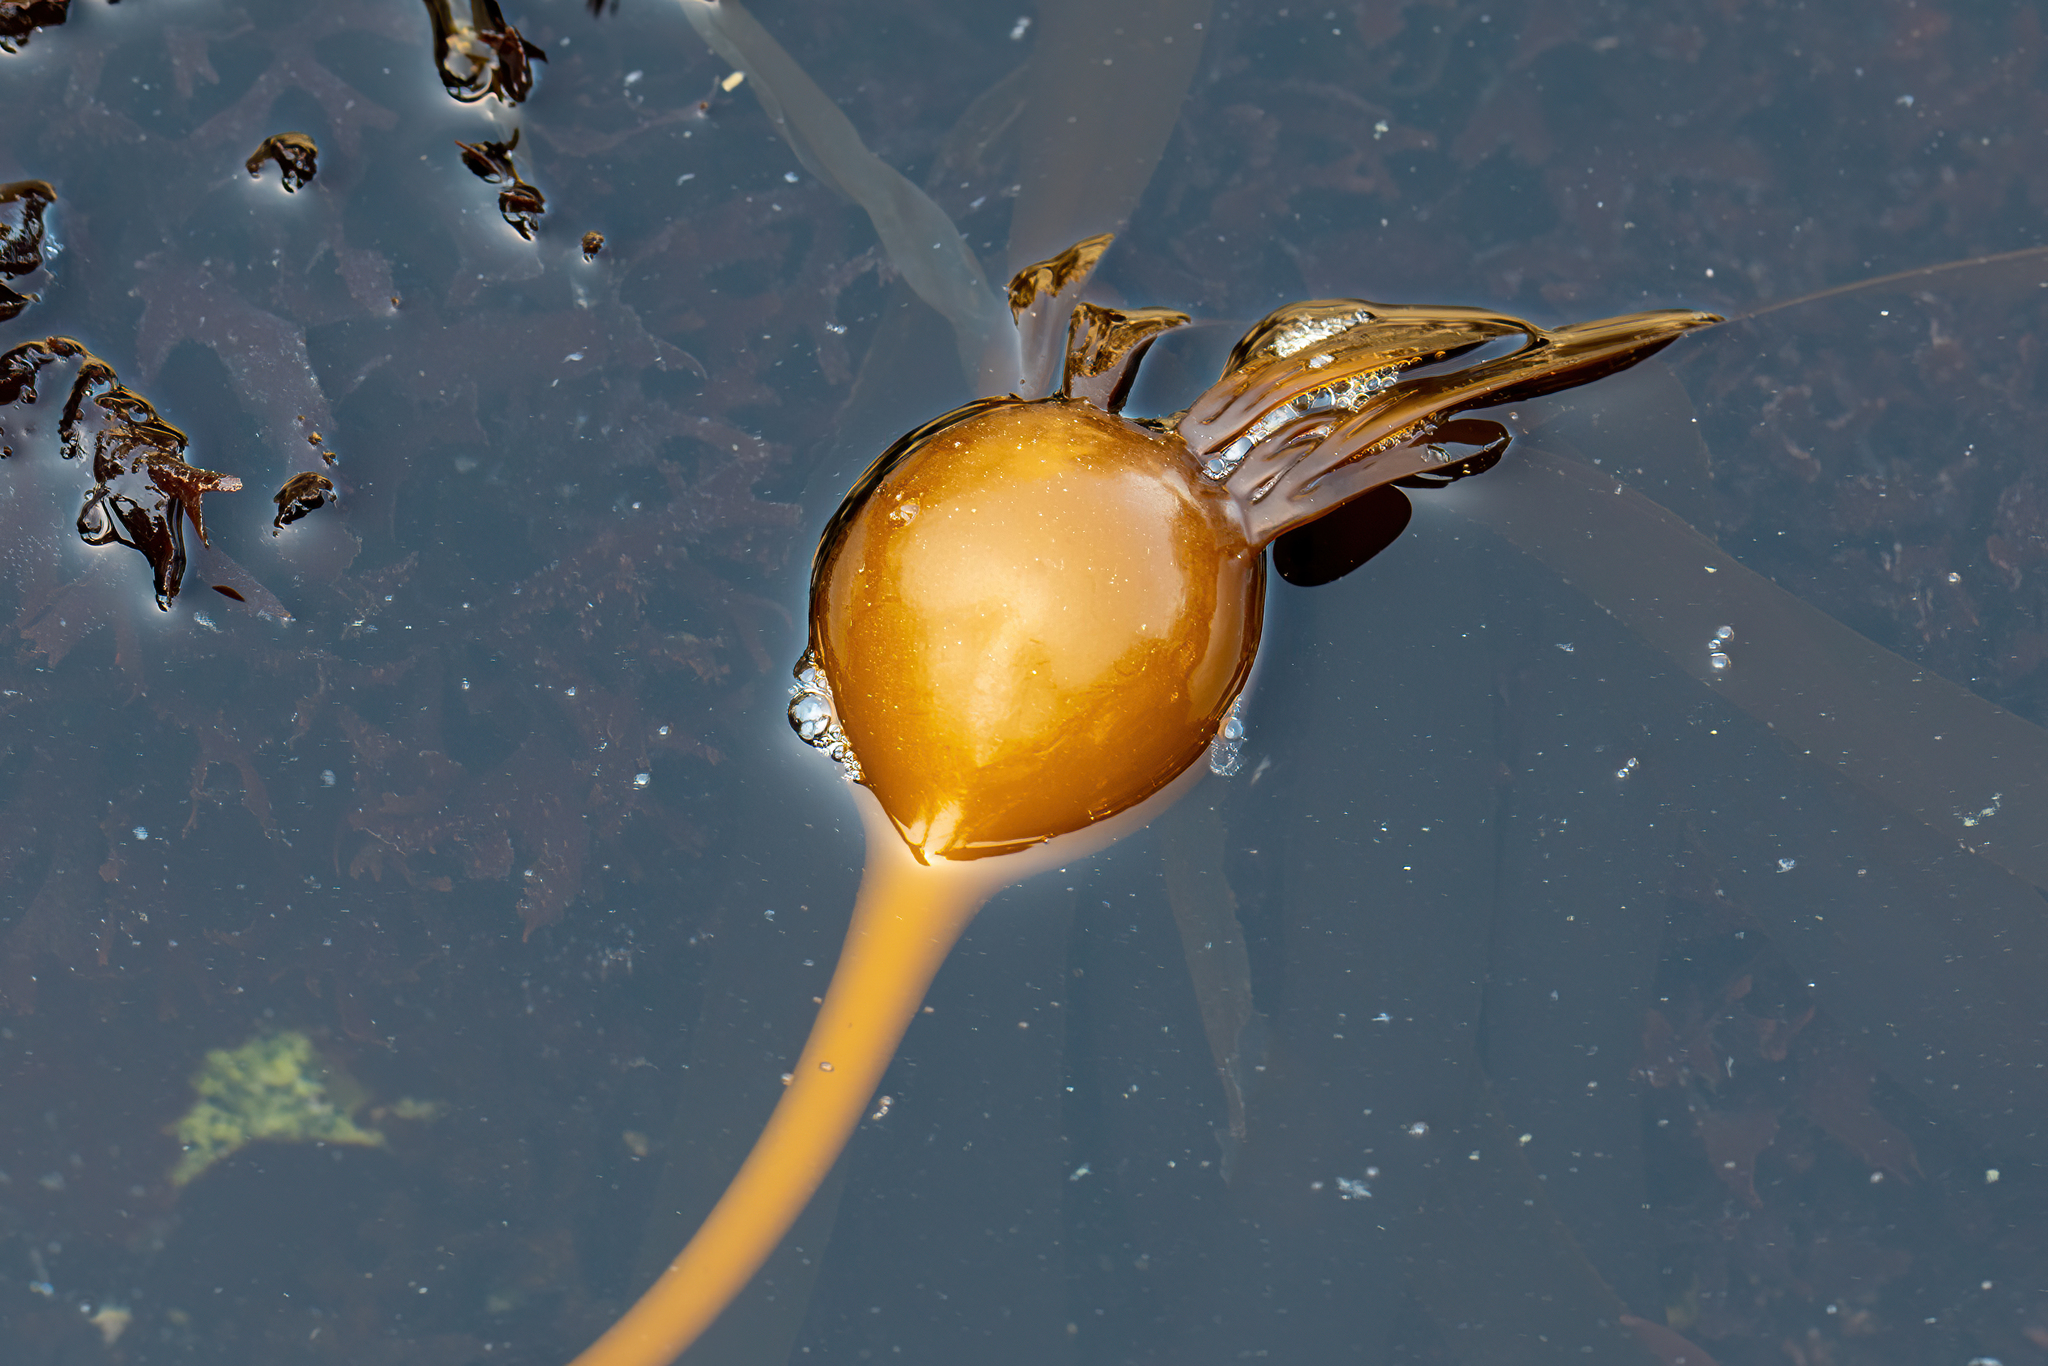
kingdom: Chromista
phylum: Ochrophyta
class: Phaeophyceae
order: Laminariales
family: Laminariaceae
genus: Nereocystis
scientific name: Nereocystis luetkeana
